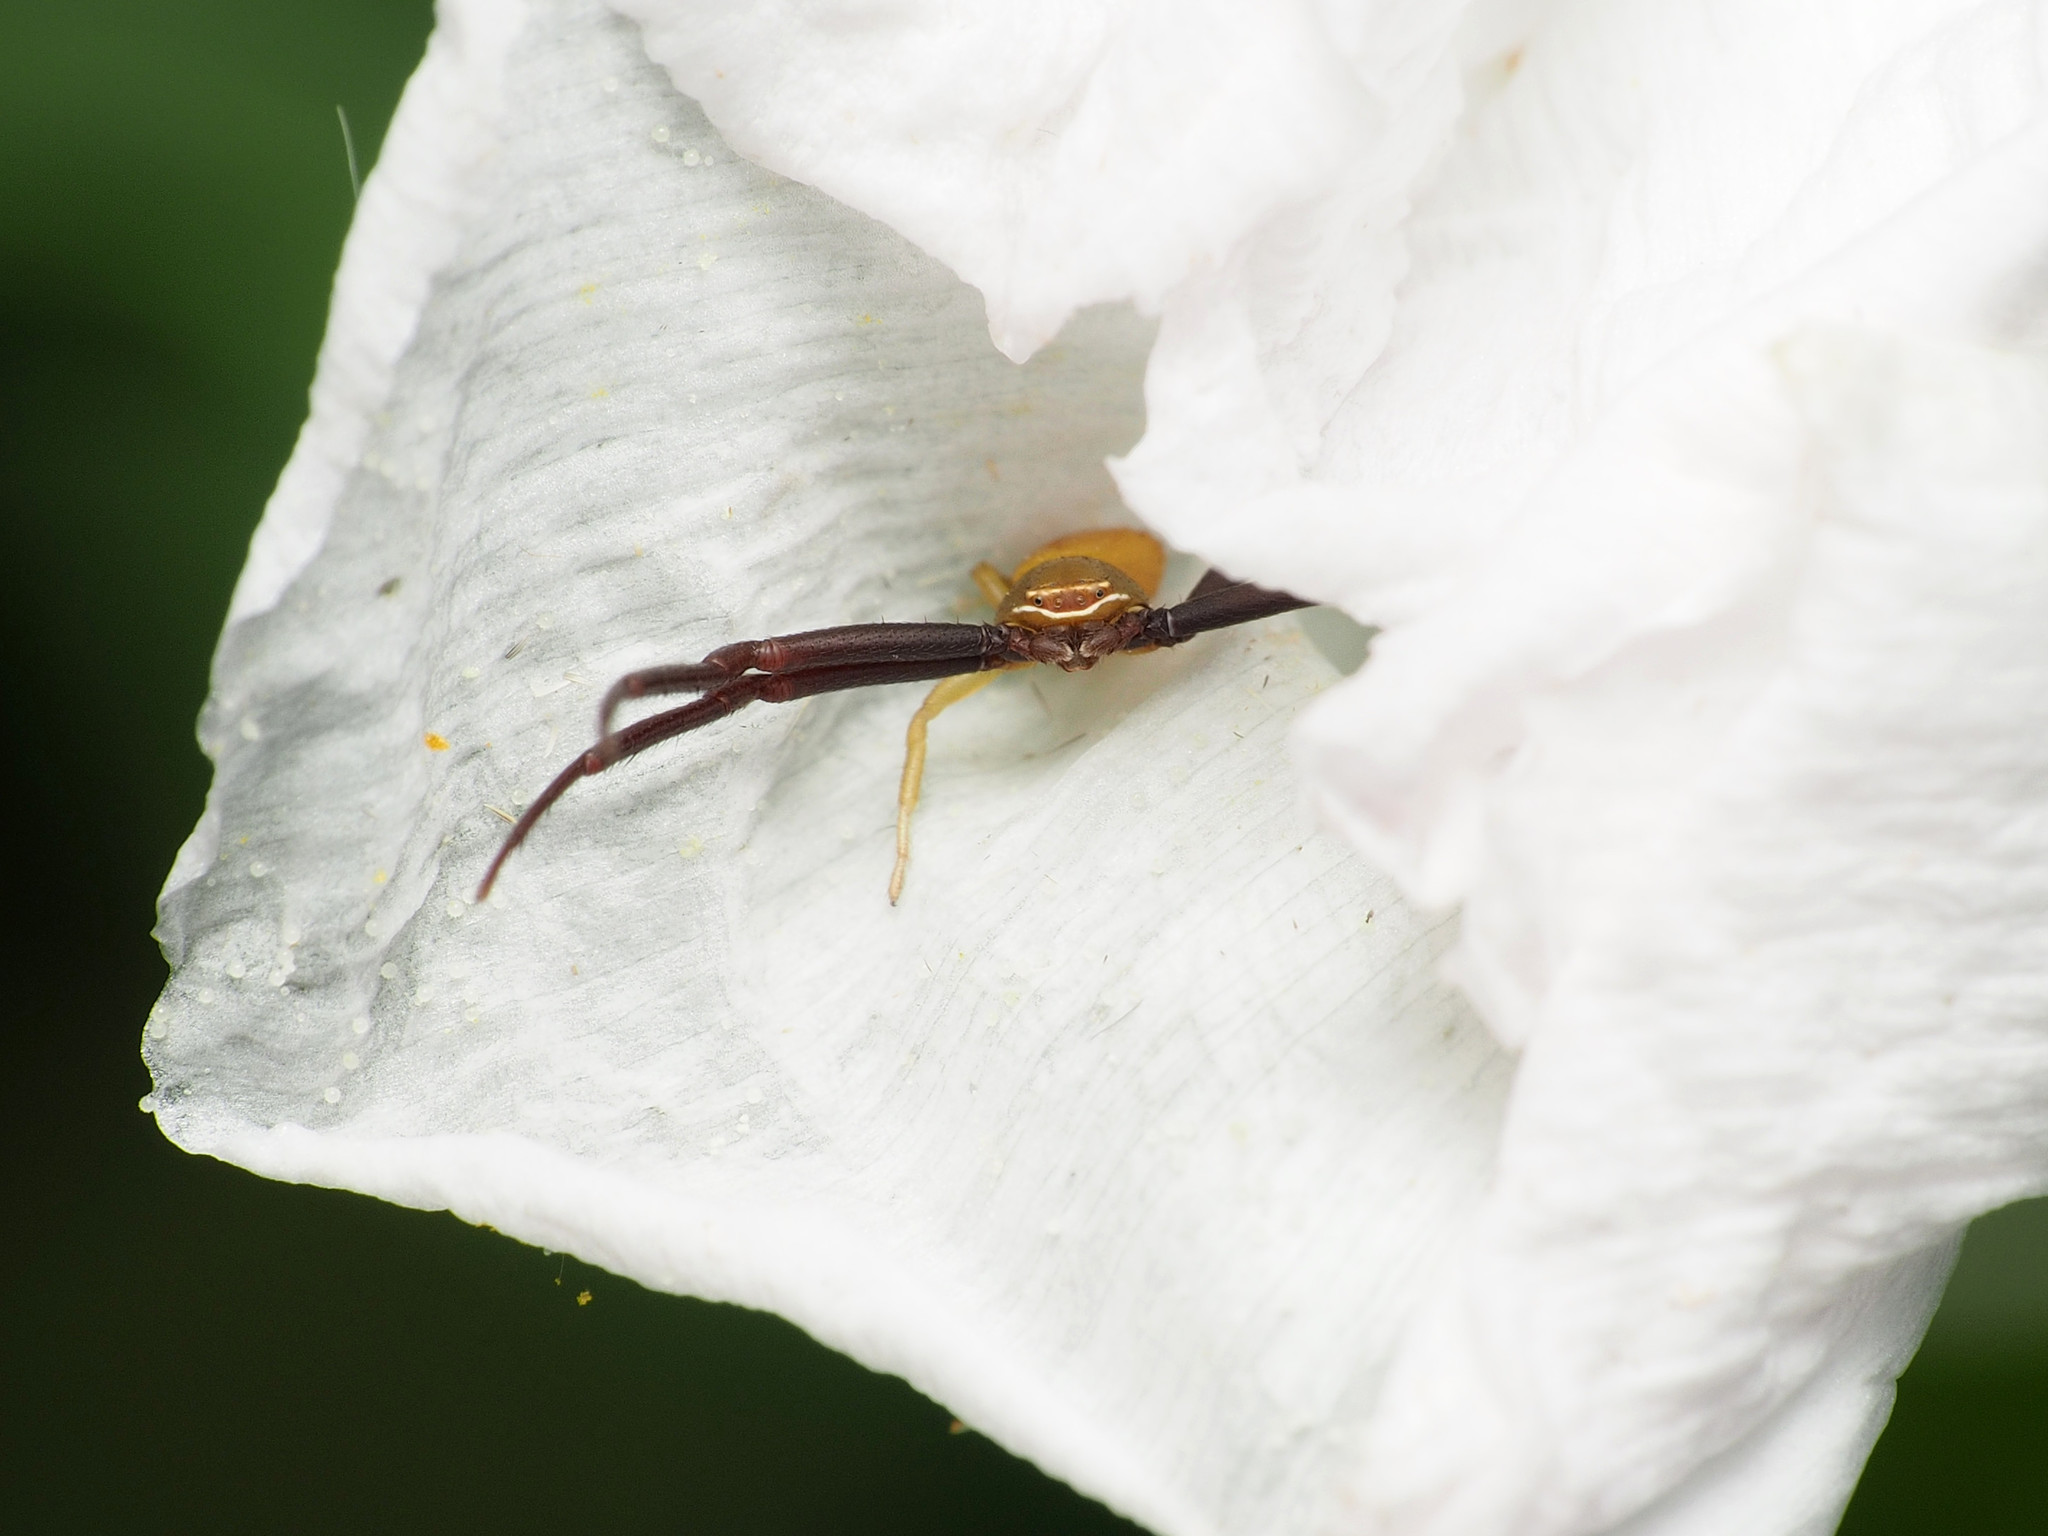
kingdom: Animalia
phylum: Arthropoda
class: Arachnida
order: Araneae
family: Thomisidae
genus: Misumenoides
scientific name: Misumenoides formosipes
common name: White-banded crab spider
